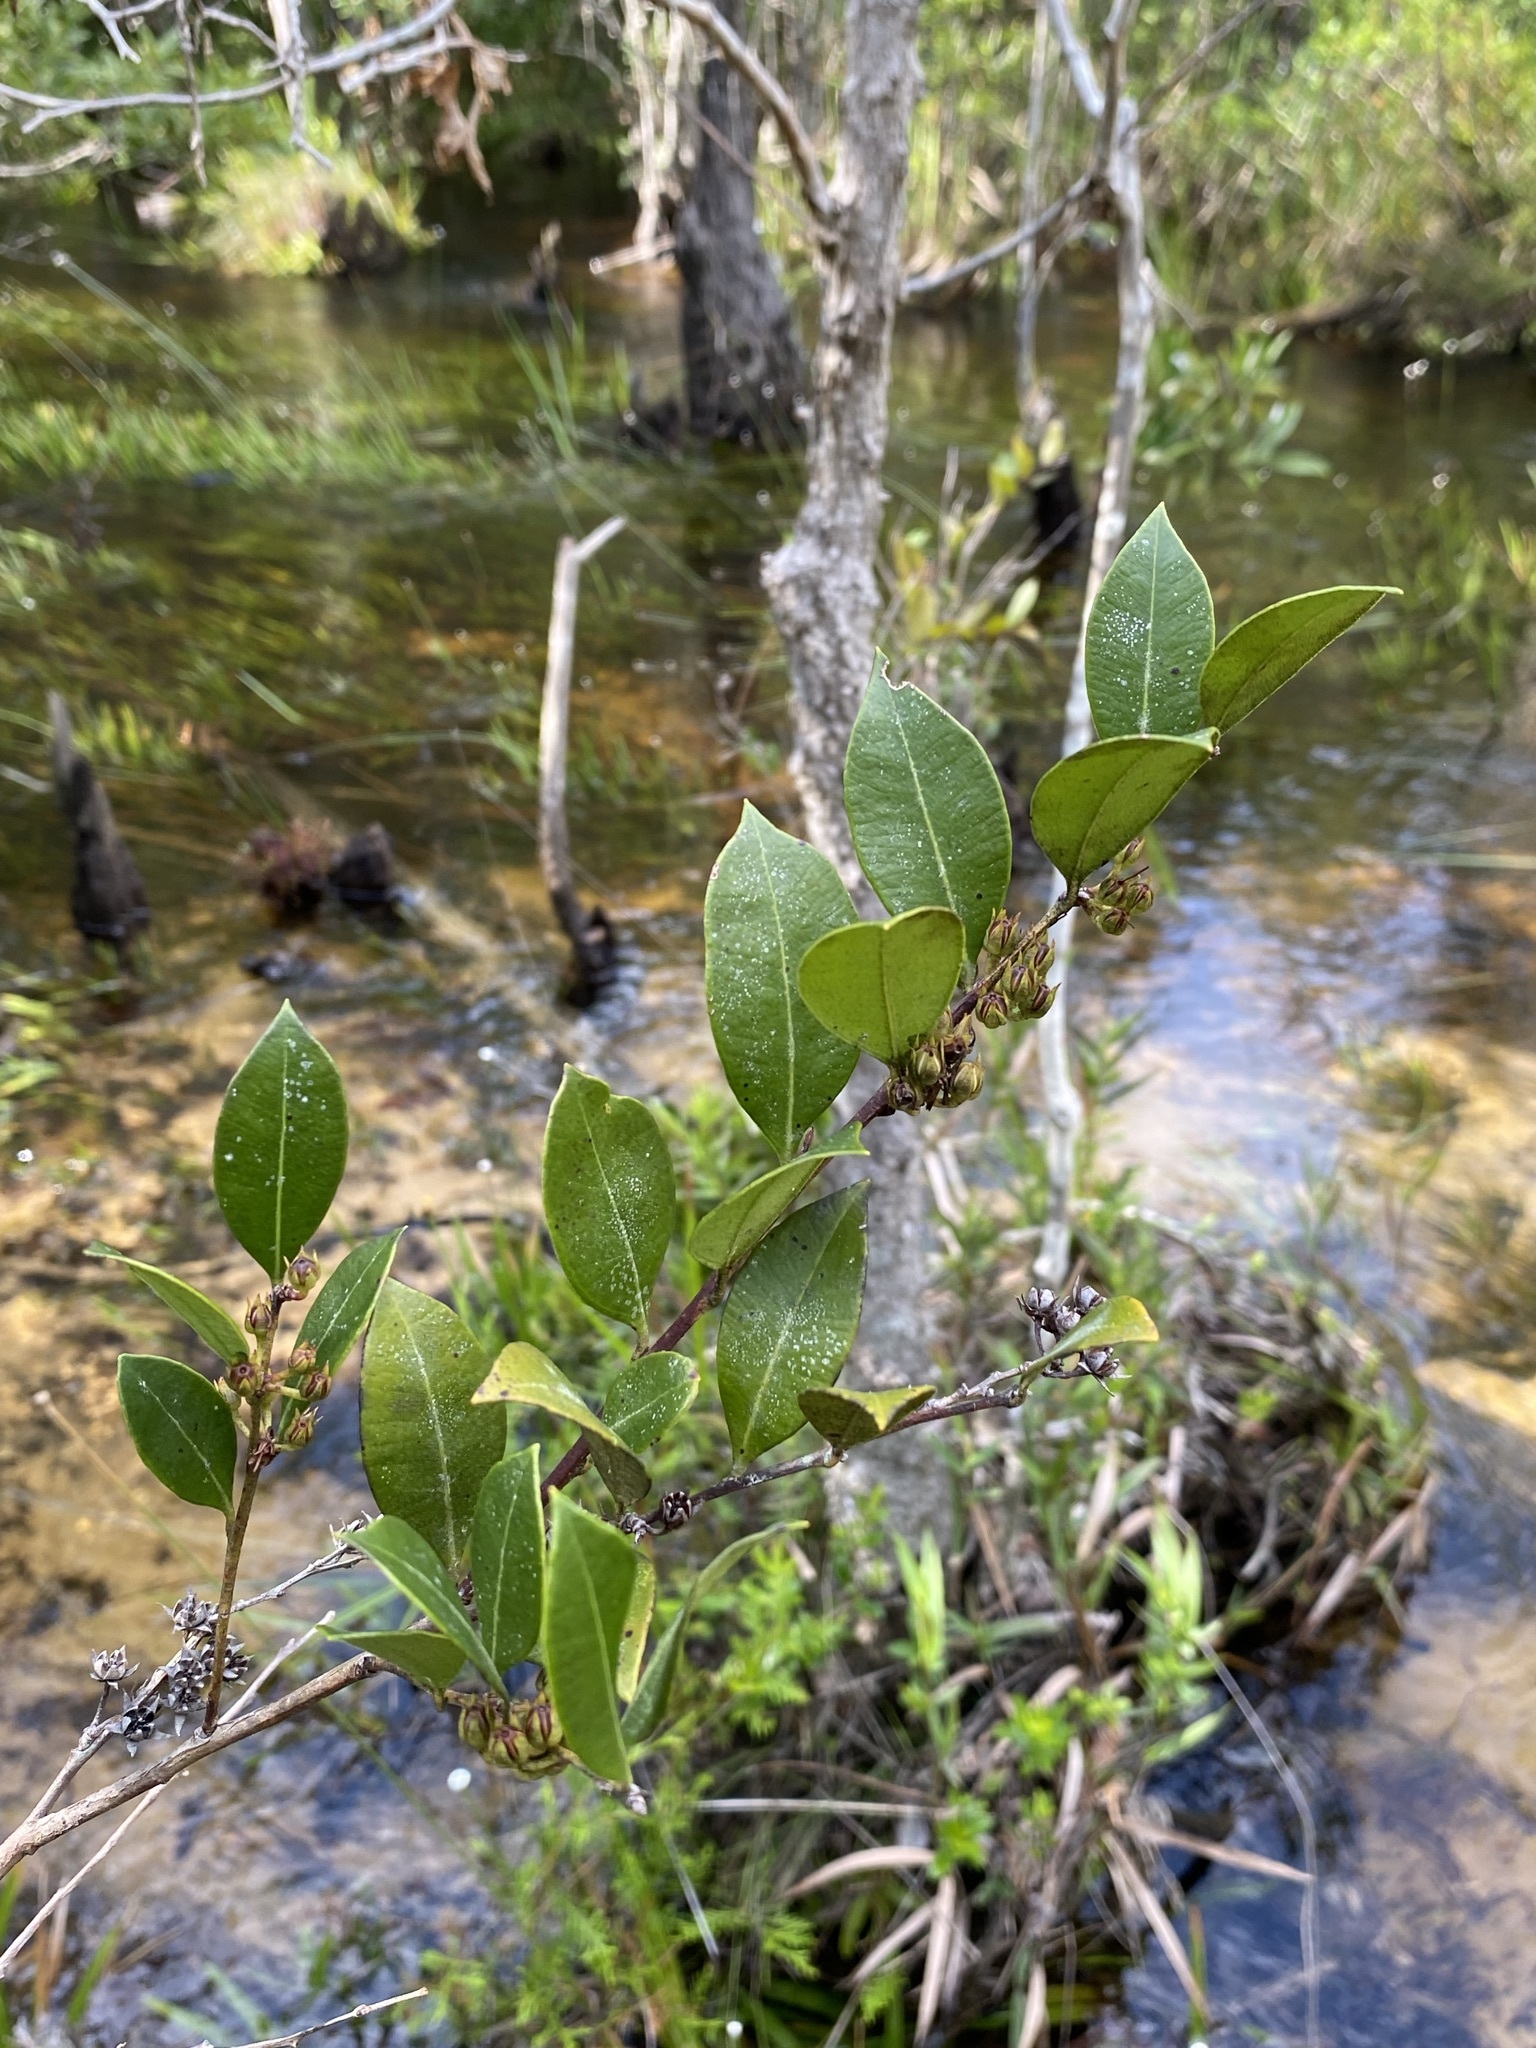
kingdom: Plantae
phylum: Tracheophyta
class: Magnoliopsida
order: Ericales
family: Ericaceae
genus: Lyonia
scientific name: Lyonia lucida
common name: Fetterbush
